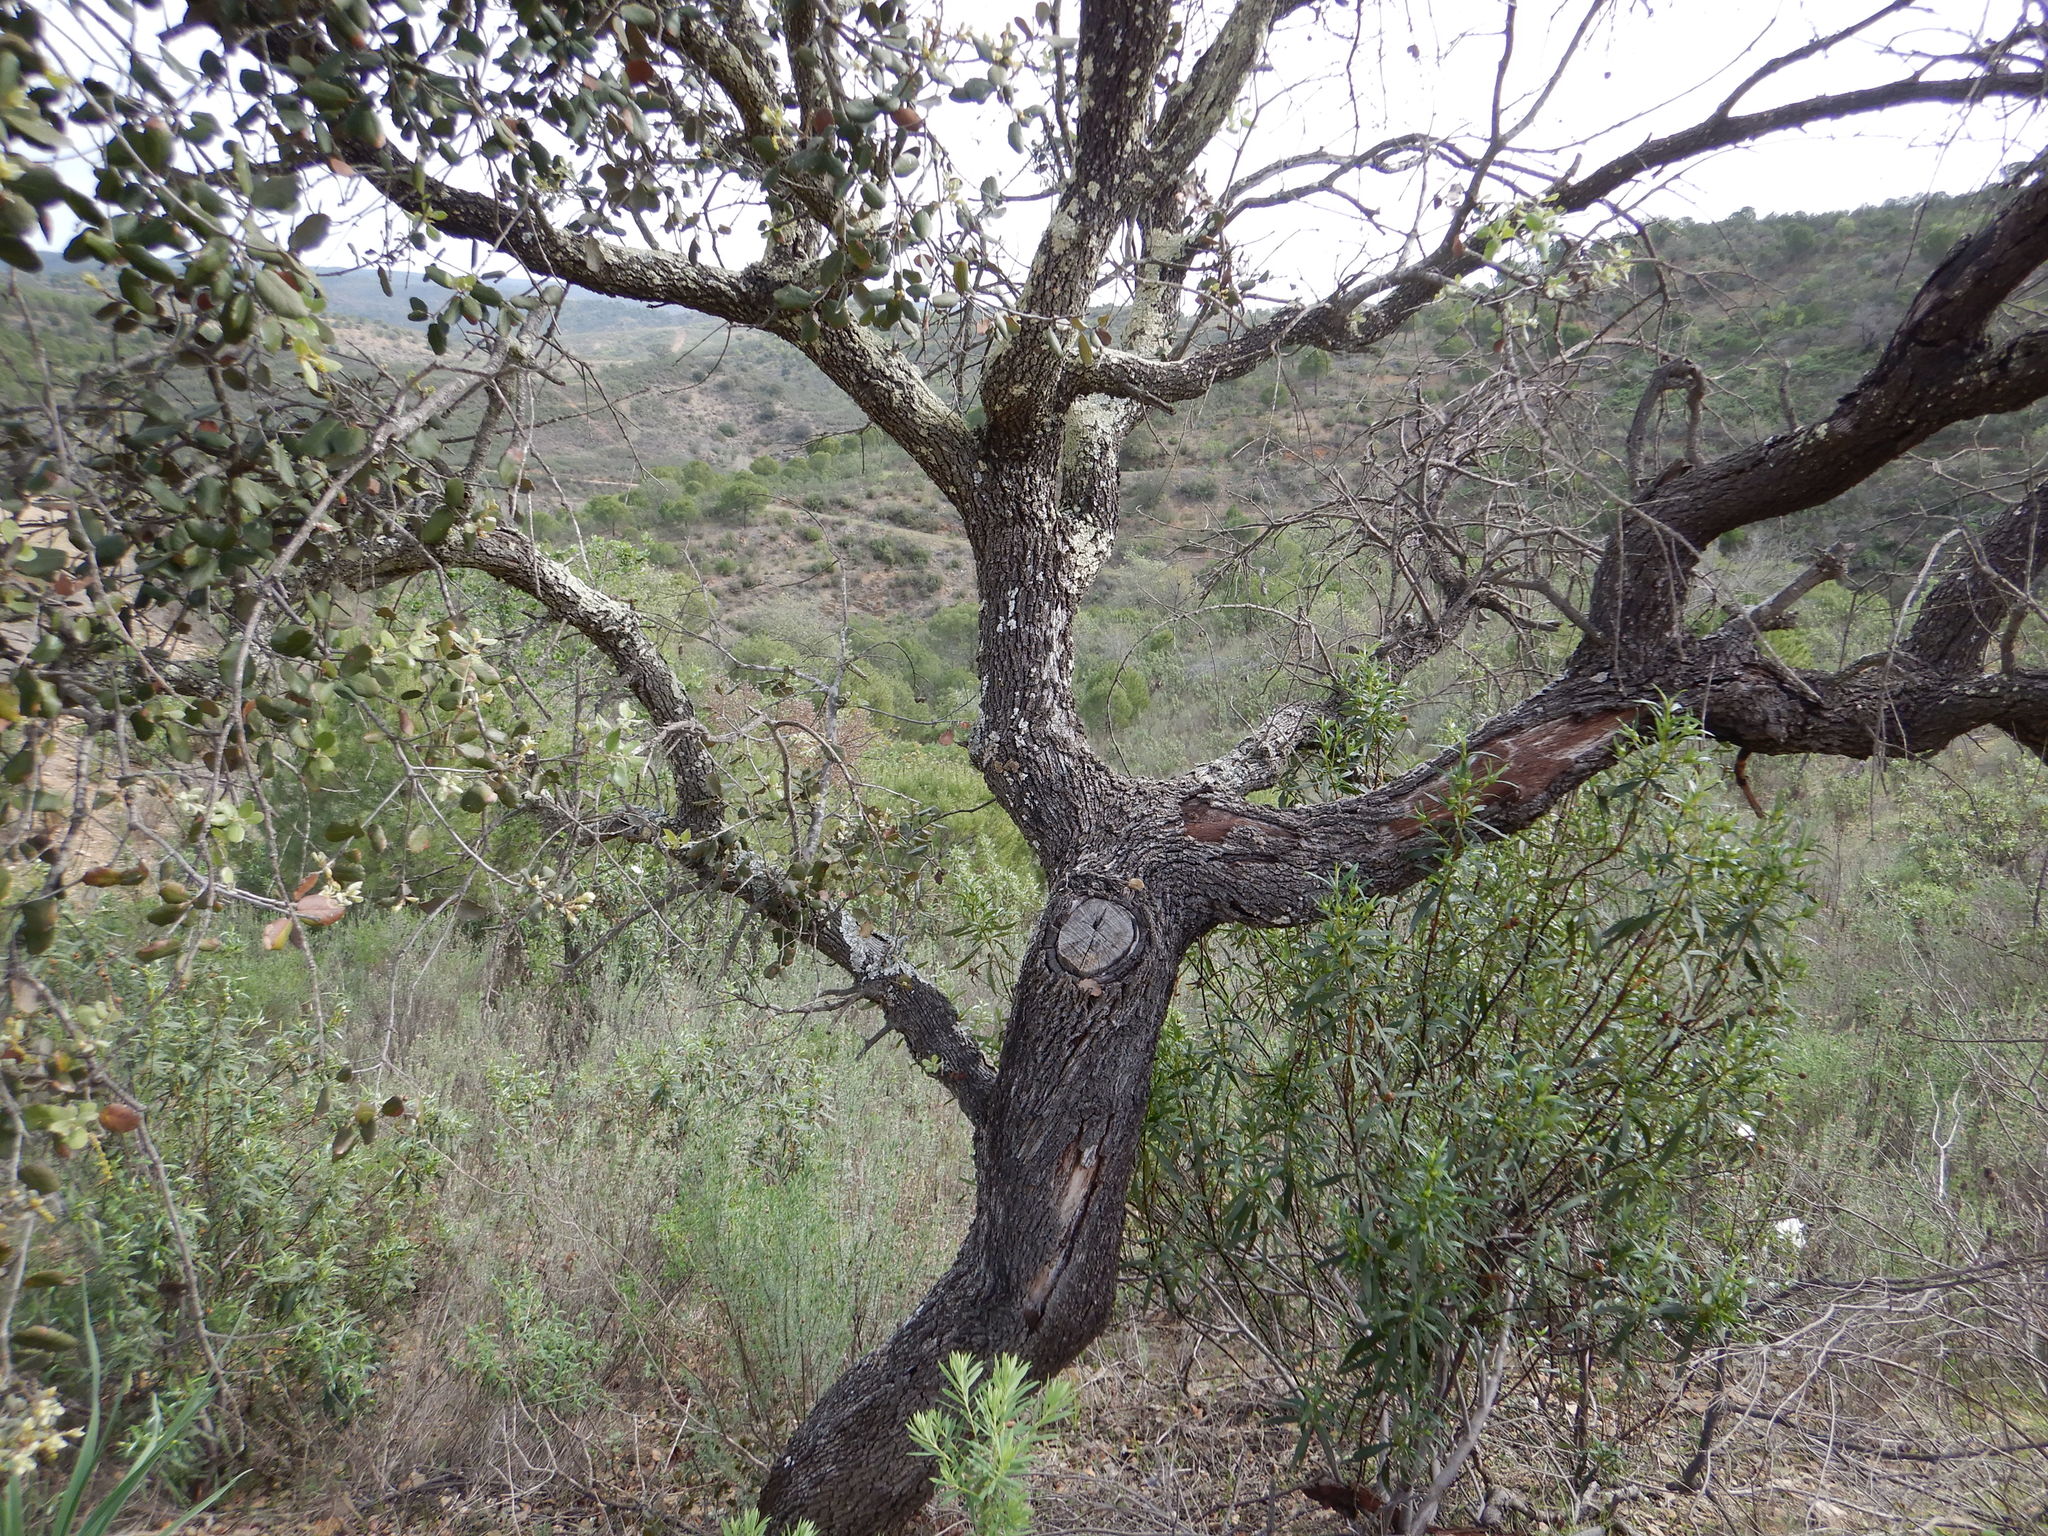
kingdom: Plantae
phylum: Tracheophyta
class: Magnoliopsida
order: Fagales
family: Fagaceae
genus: Quercus
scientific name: Quercus rotundifolia
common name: Holm oak
